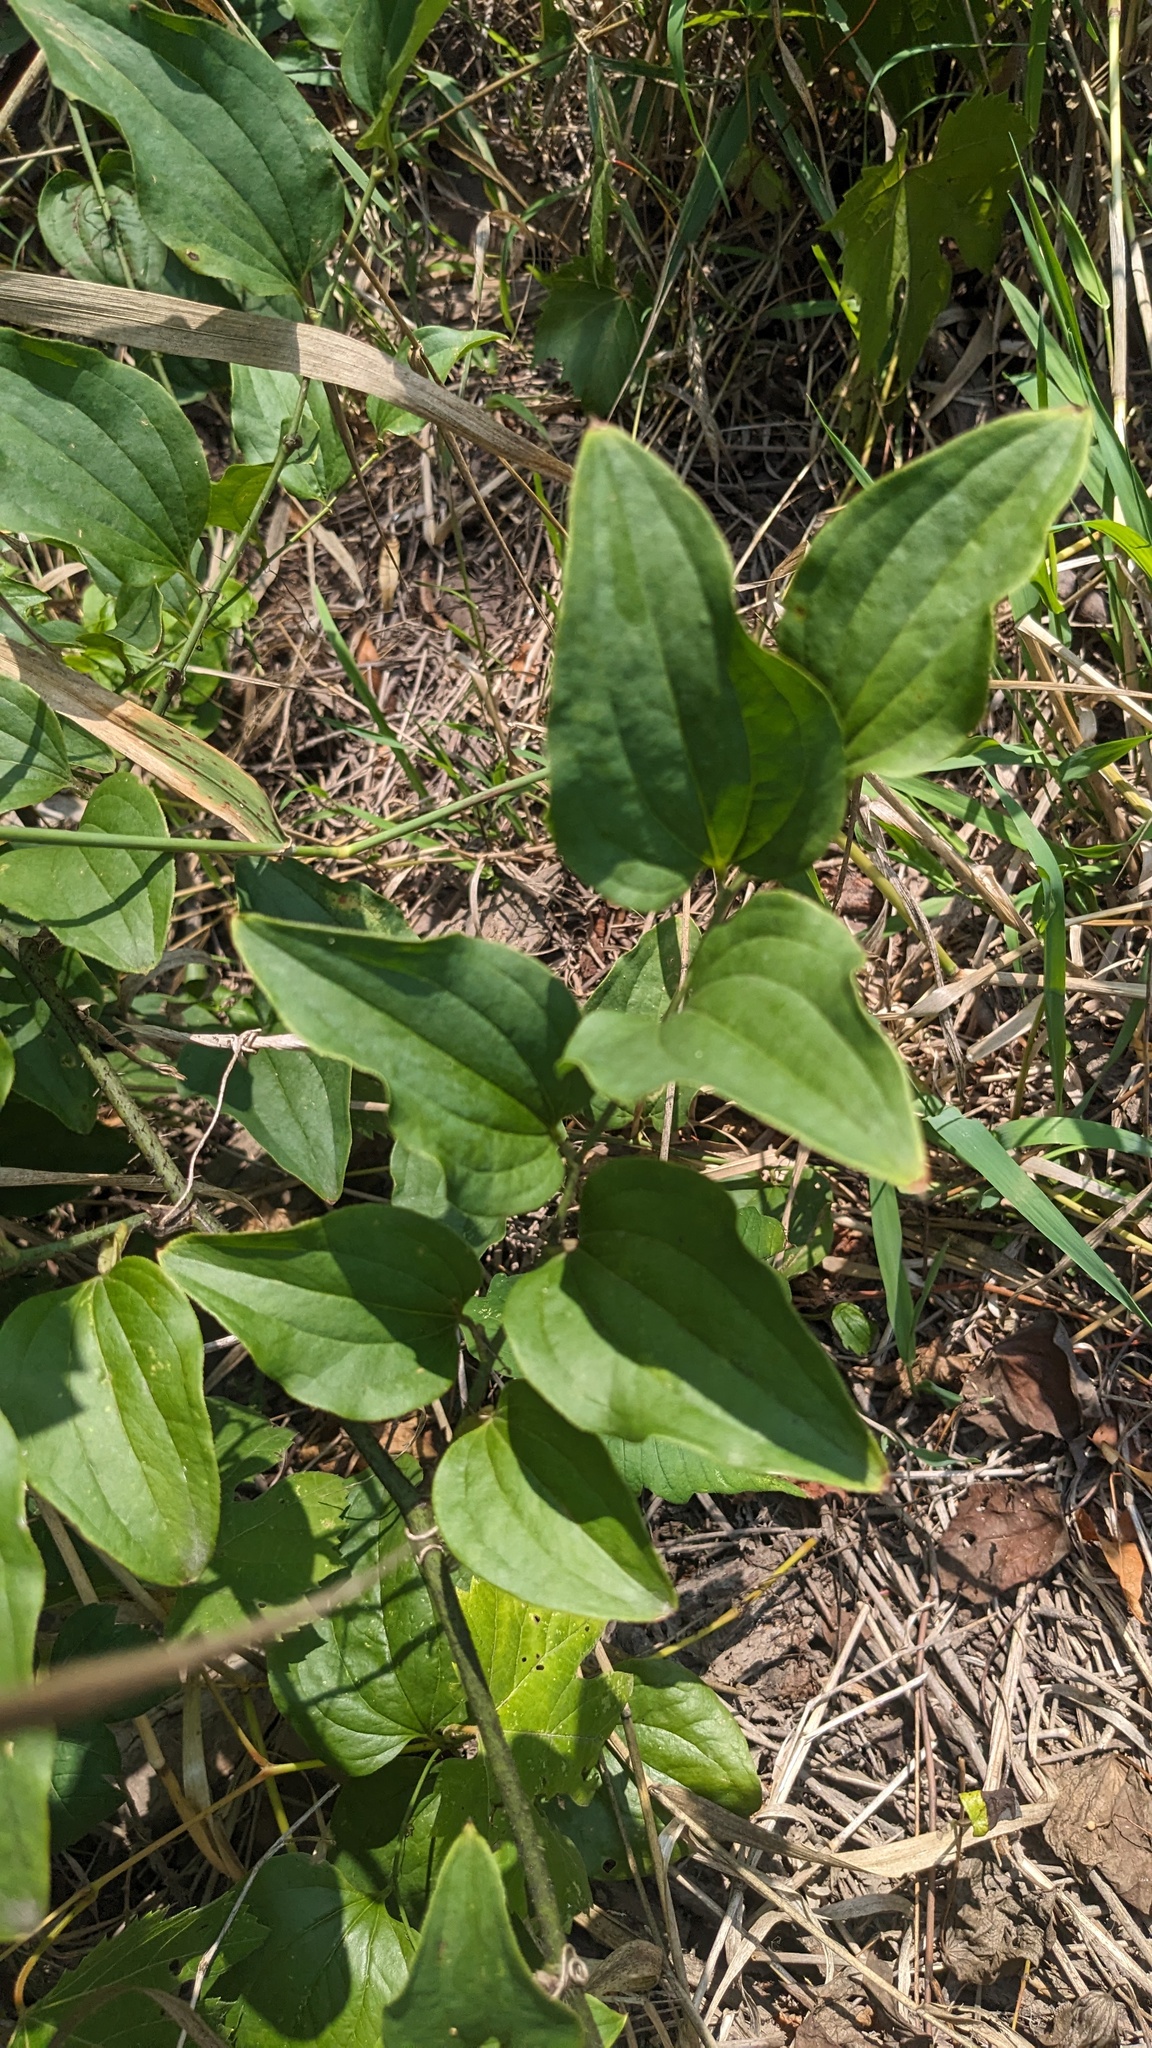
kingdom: Plantae
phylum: Tracheophyta
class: Liliopsida
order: Liliales
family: Smilacaceae
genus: Smilax
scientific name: Smilax tamnoides
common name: Hellfetter
